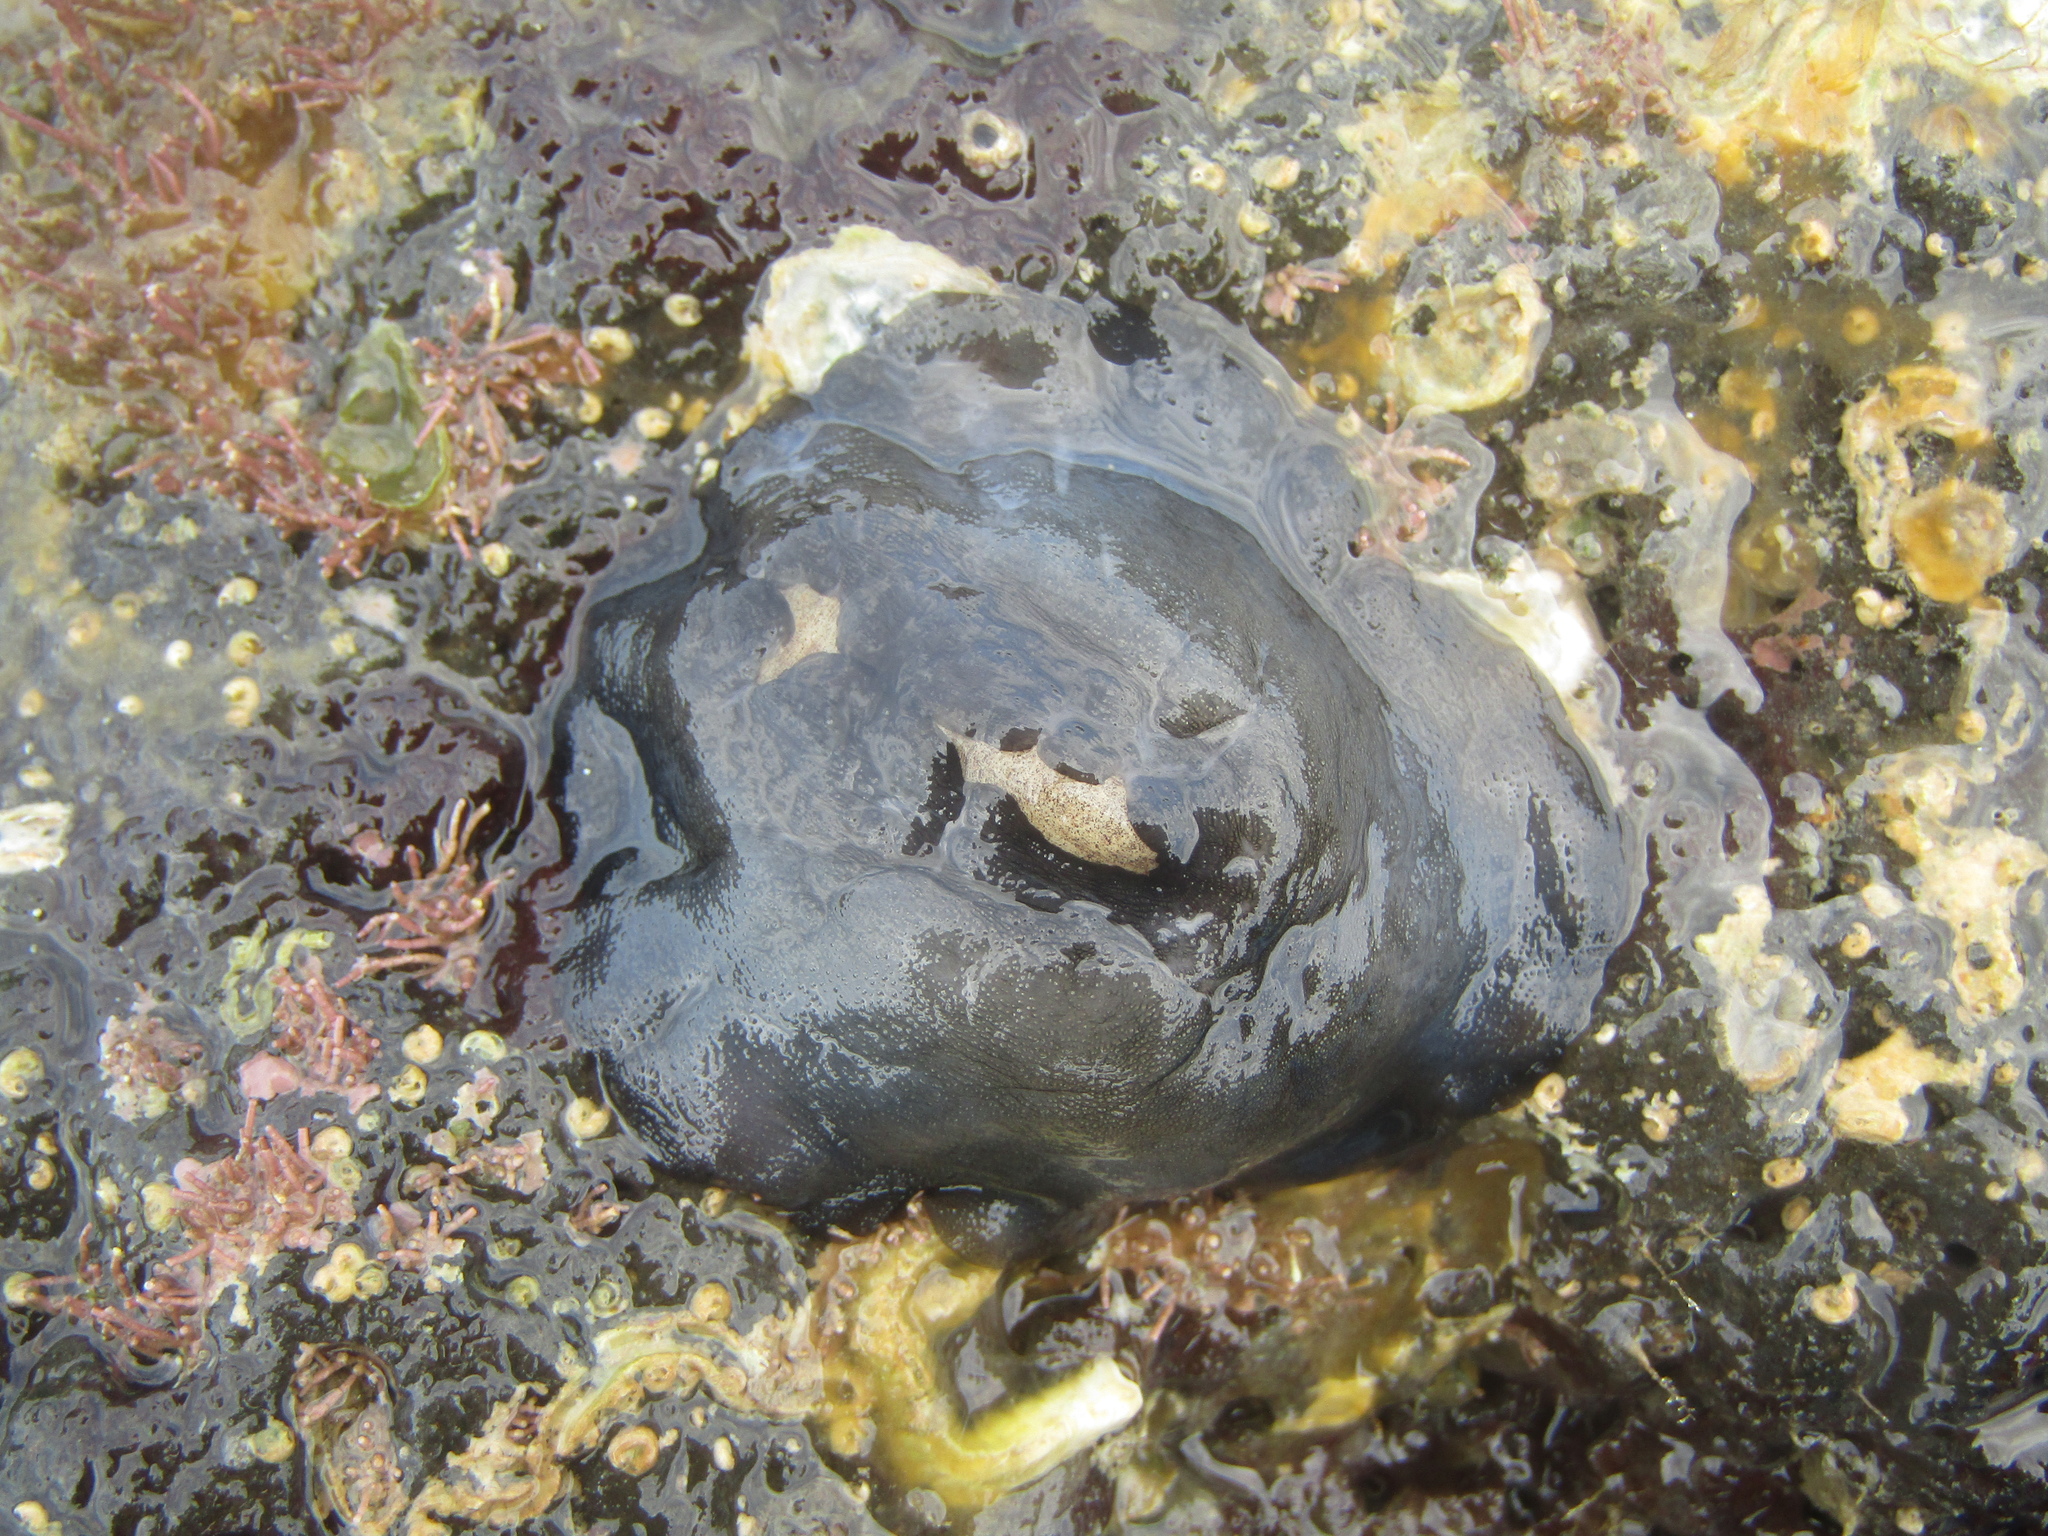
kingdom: Animalia
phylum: Mollusca
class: Gastropoda
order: Lepetellida
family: Fissurellidae
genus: Scutus
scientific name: Scutus breviculus
